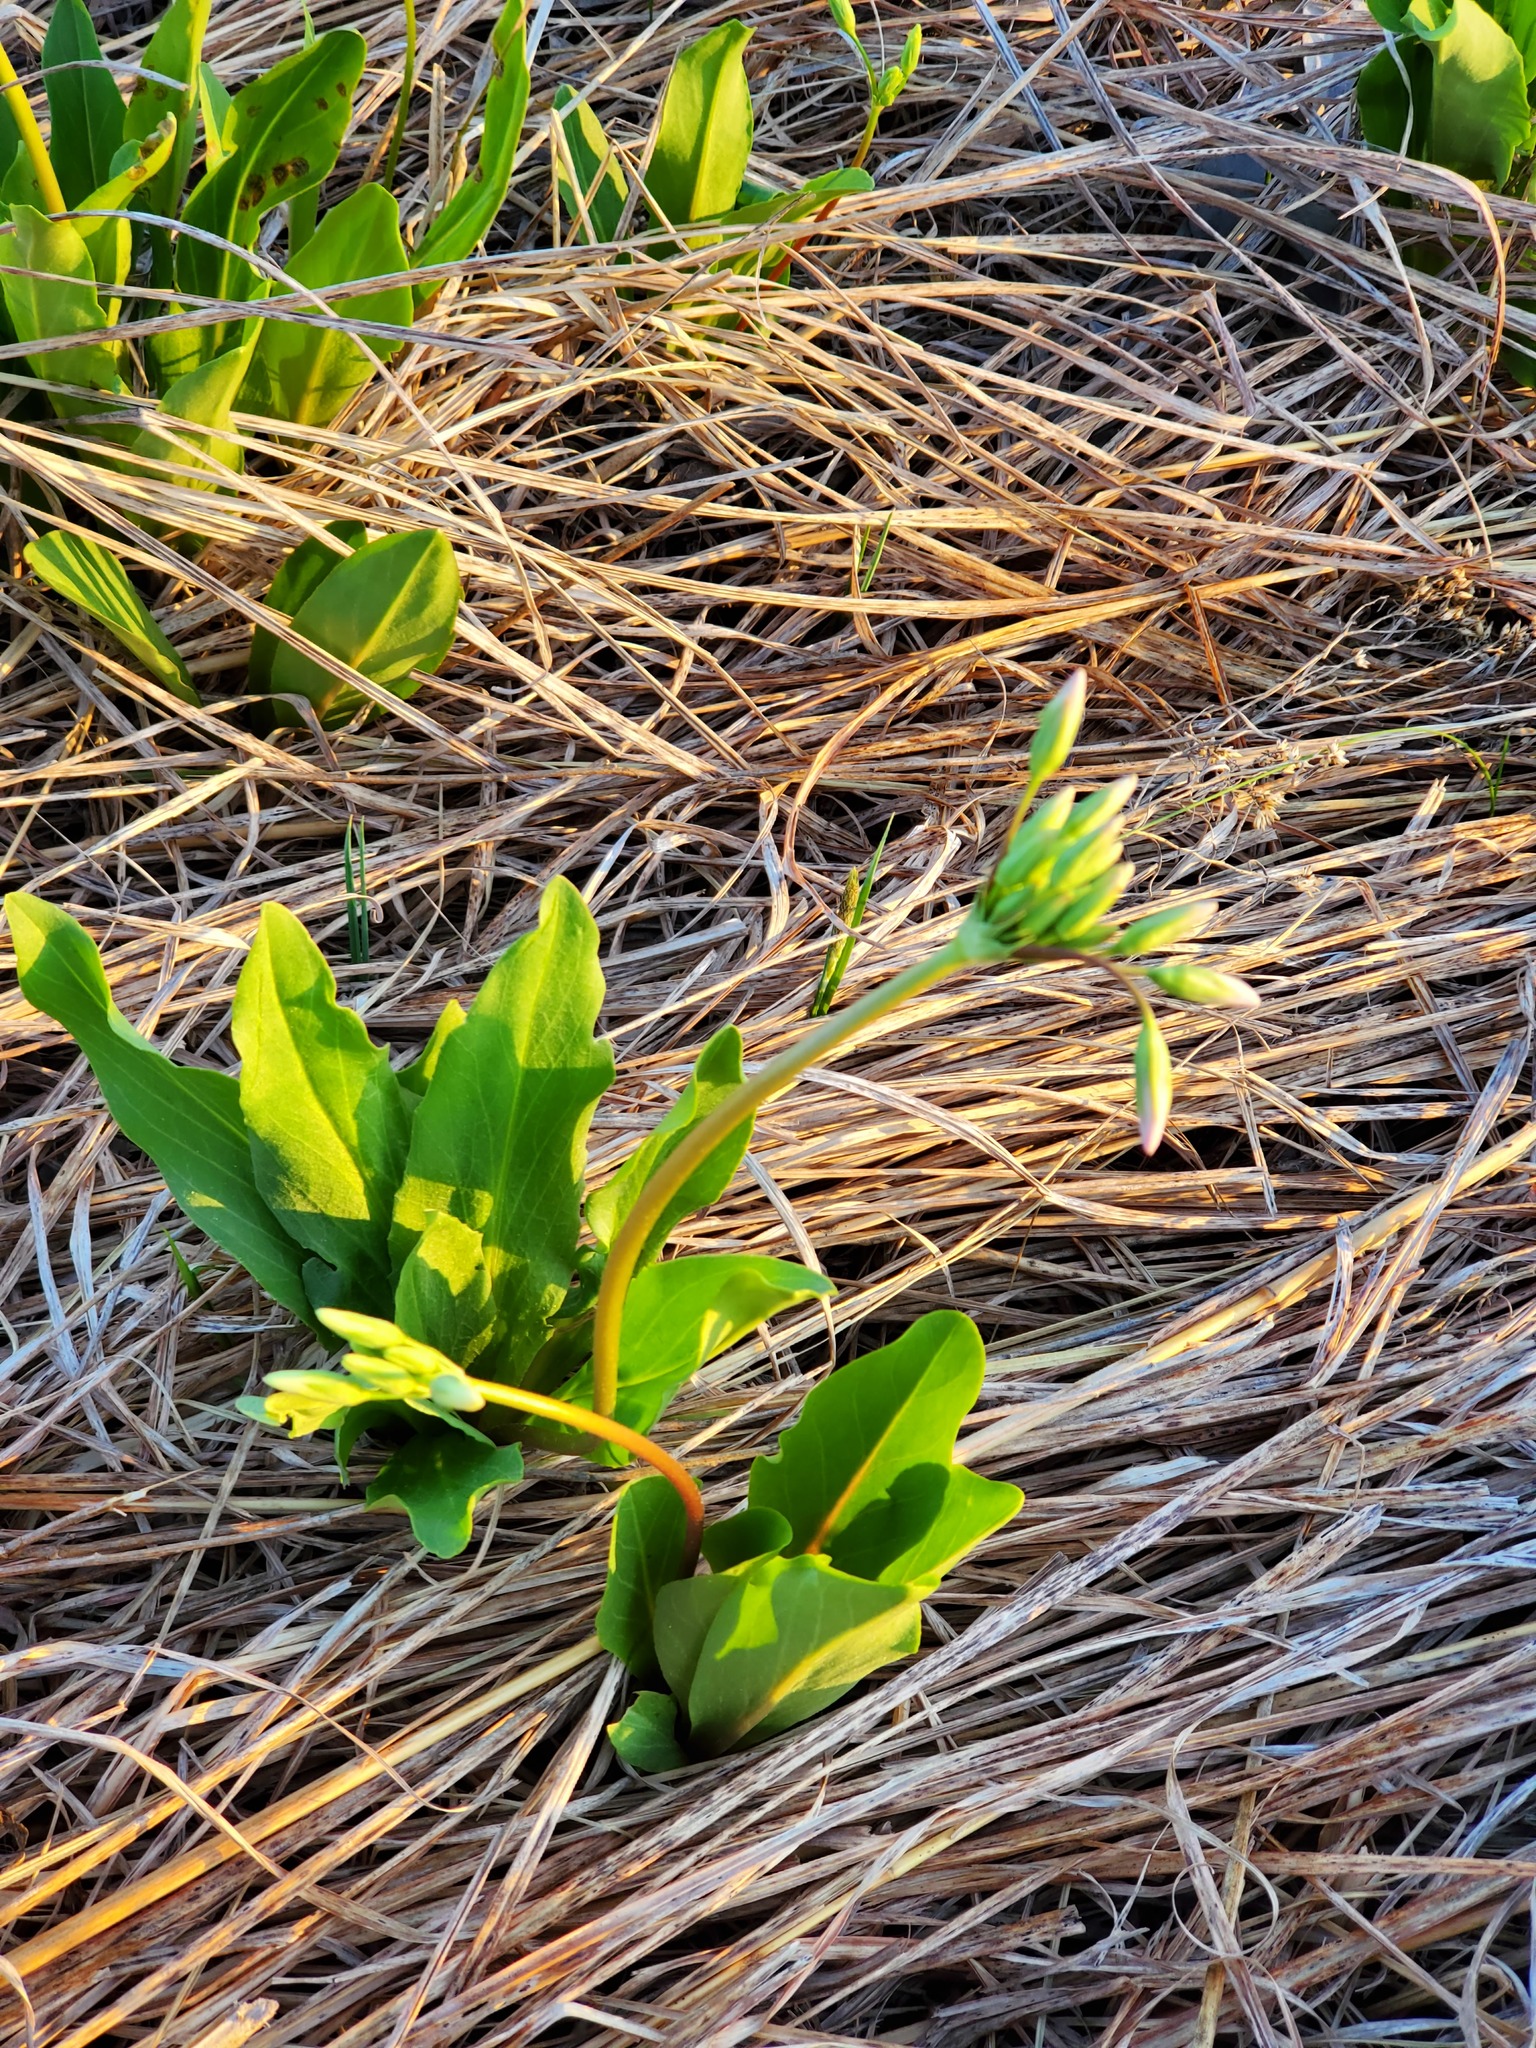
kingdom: Plantae
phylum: Tracheophyta
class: Magnoliopsida
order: Ericales
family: Primulaceae
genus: Dodecatheon
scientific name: Dodecatheon meadia
